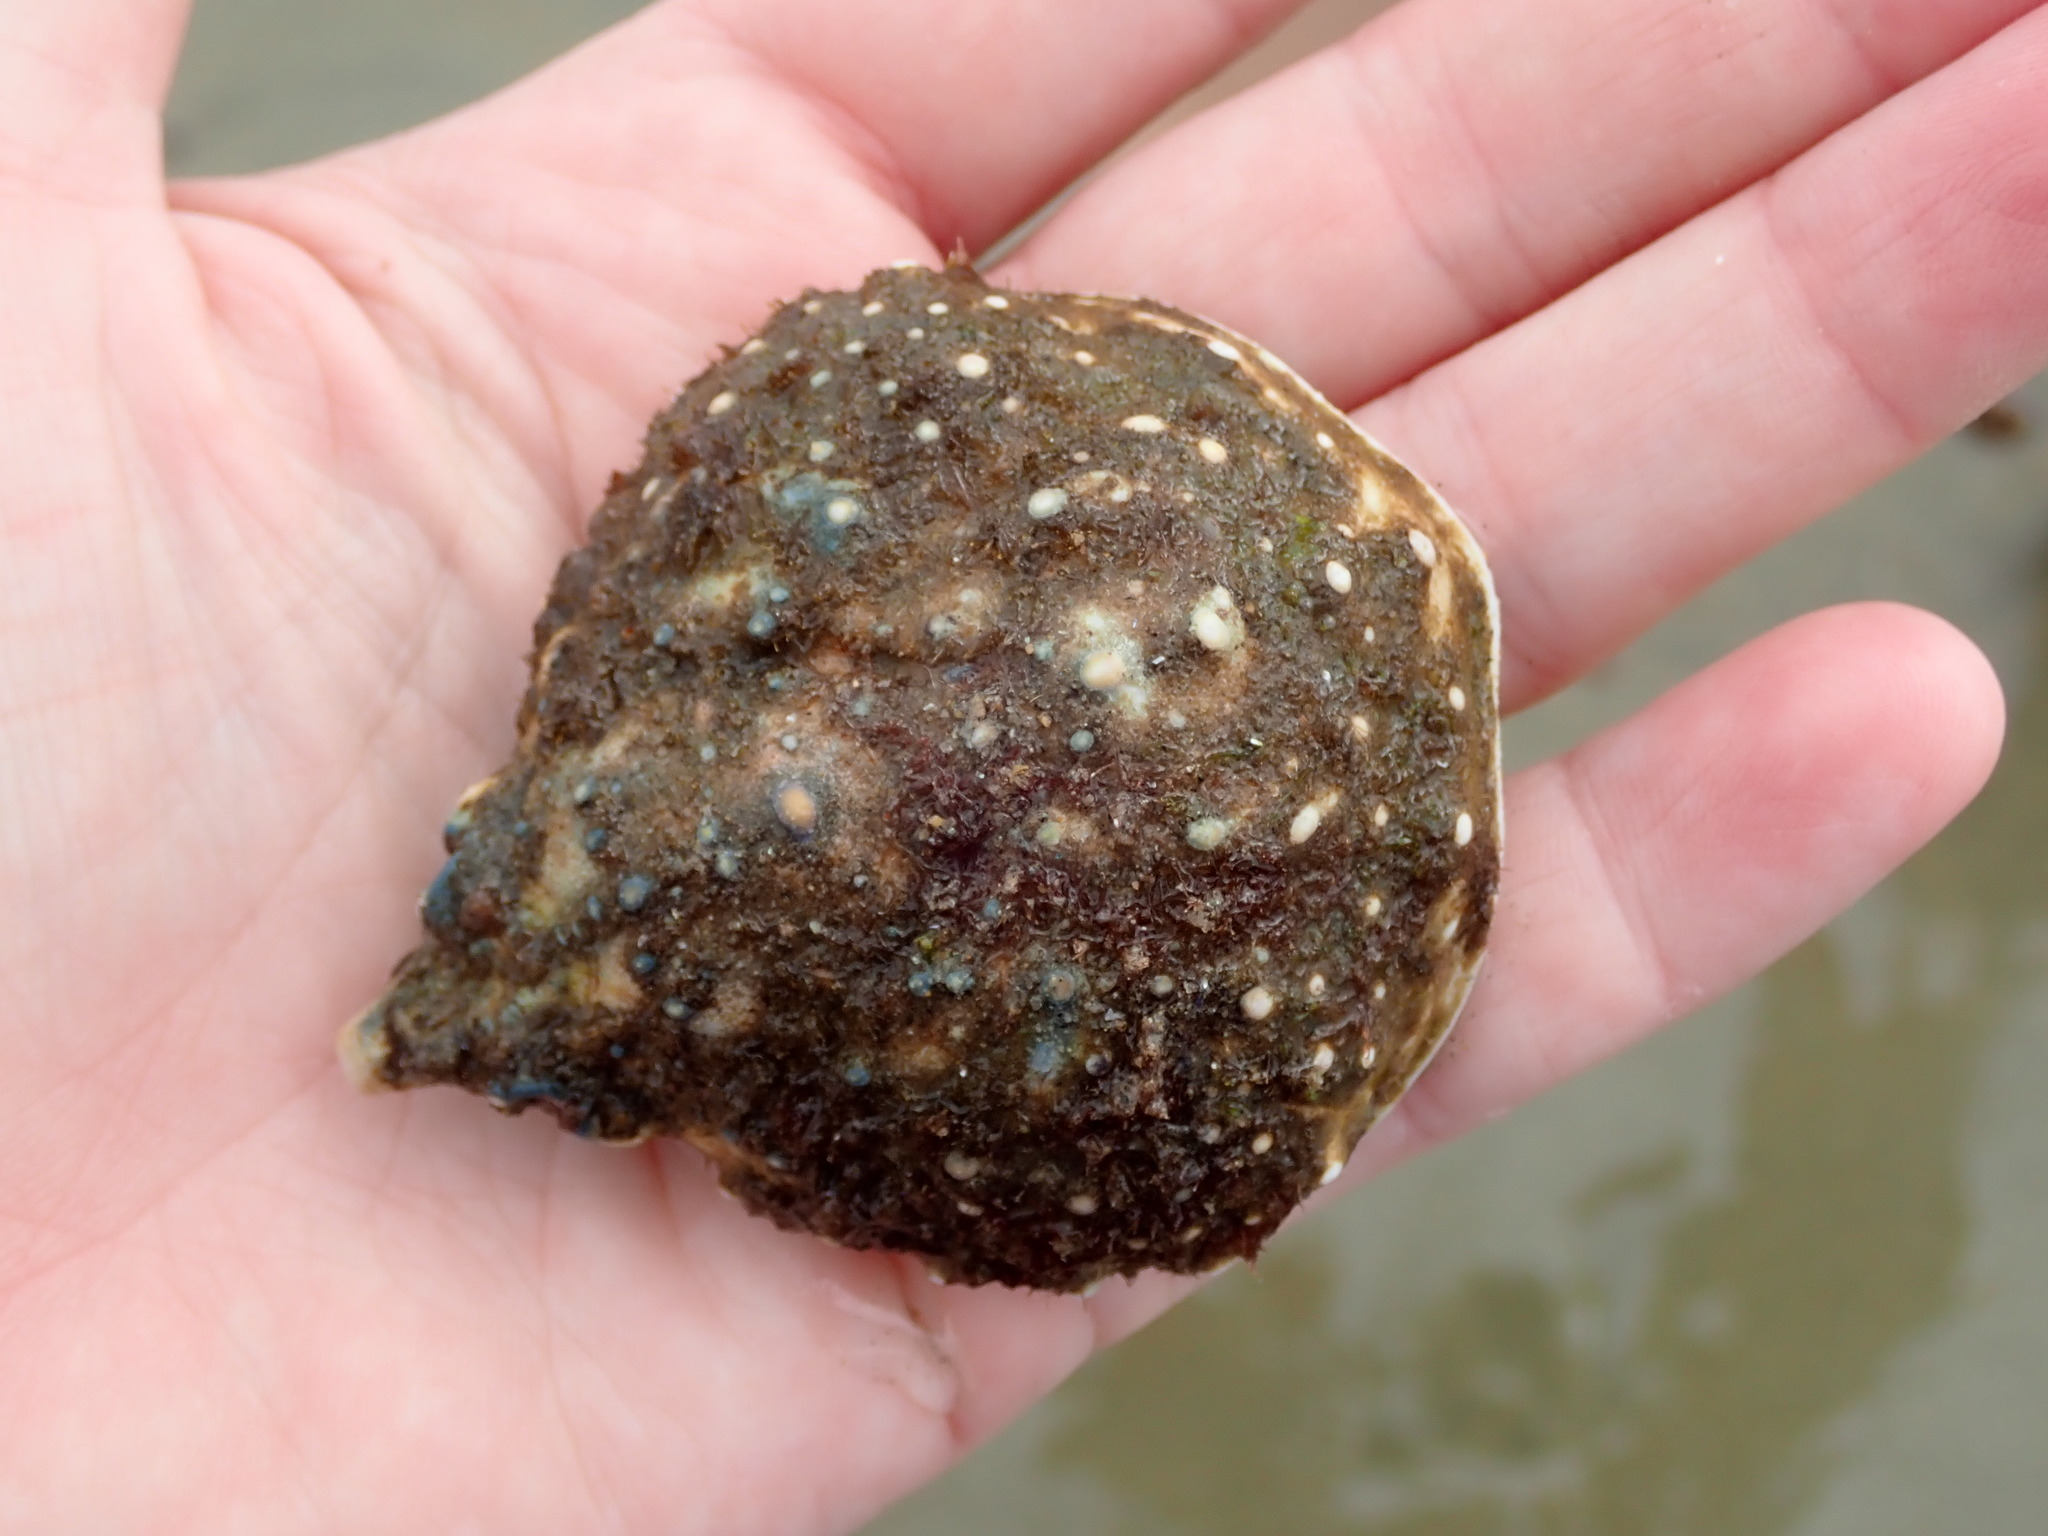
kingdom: Animalia
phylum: Arthropoda
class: Malacostraca
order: Decapoda
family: Epialtidae
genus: Libinia
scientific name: Libinia emarginata
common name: Common spider crab
